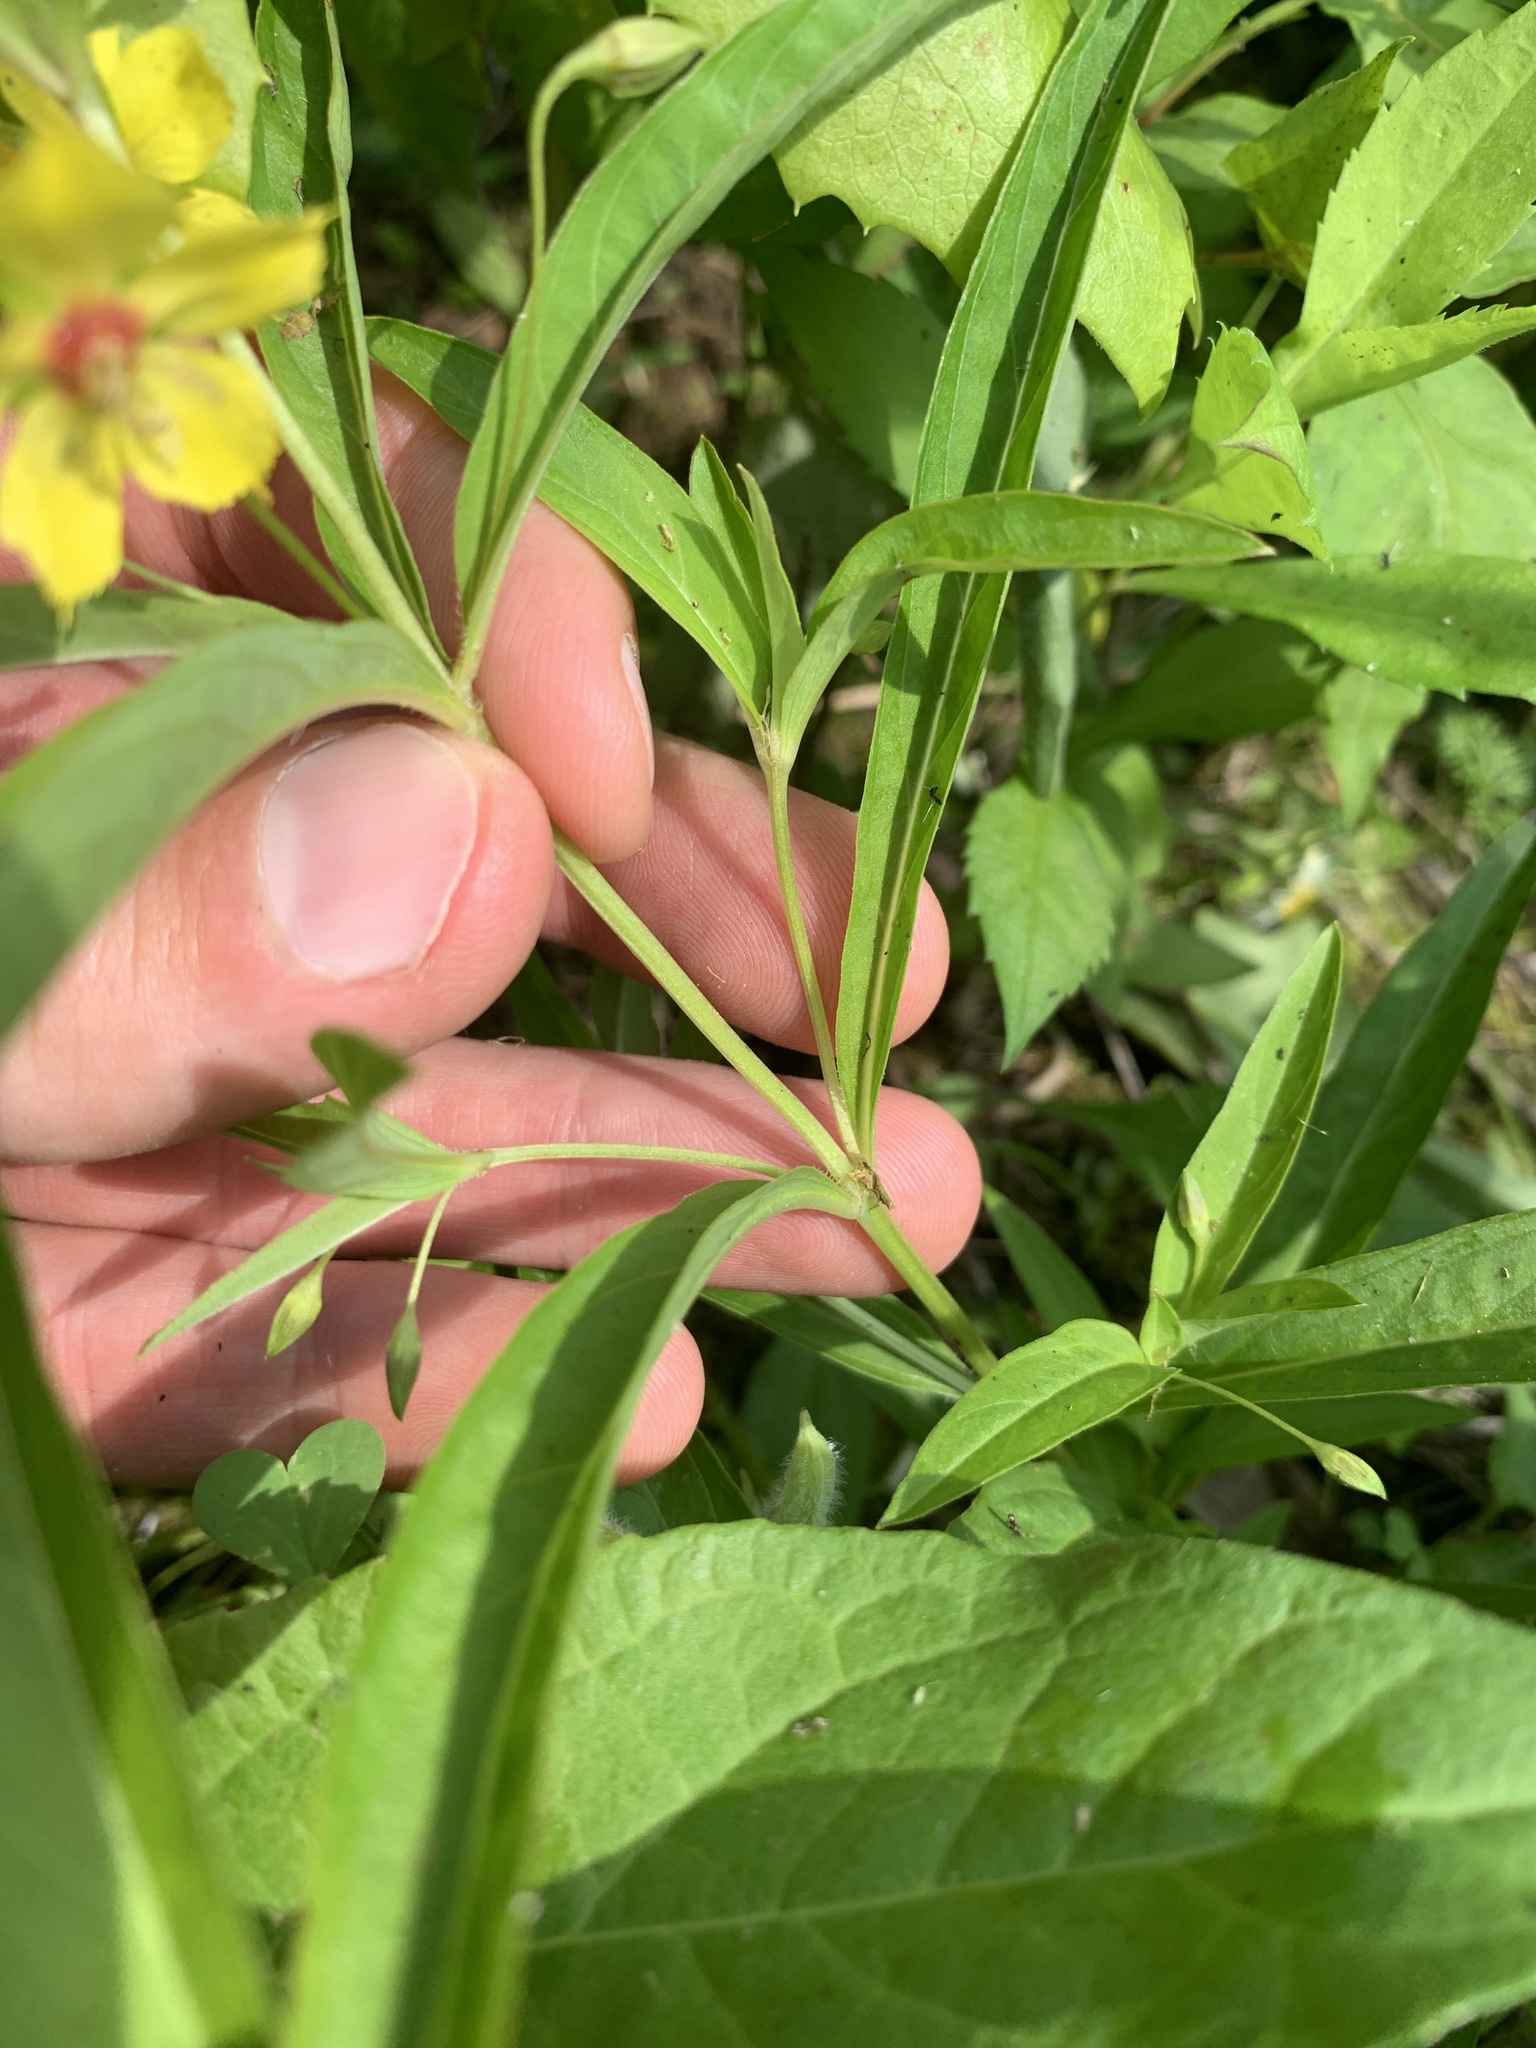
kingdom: Plantae
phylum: Tracheophyta
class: Magnoliopsida
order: Ericales
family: Primulaceae
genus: Lysimachia
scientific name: Lysimachia lanceolata
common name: Lance-leaved loosestrife
